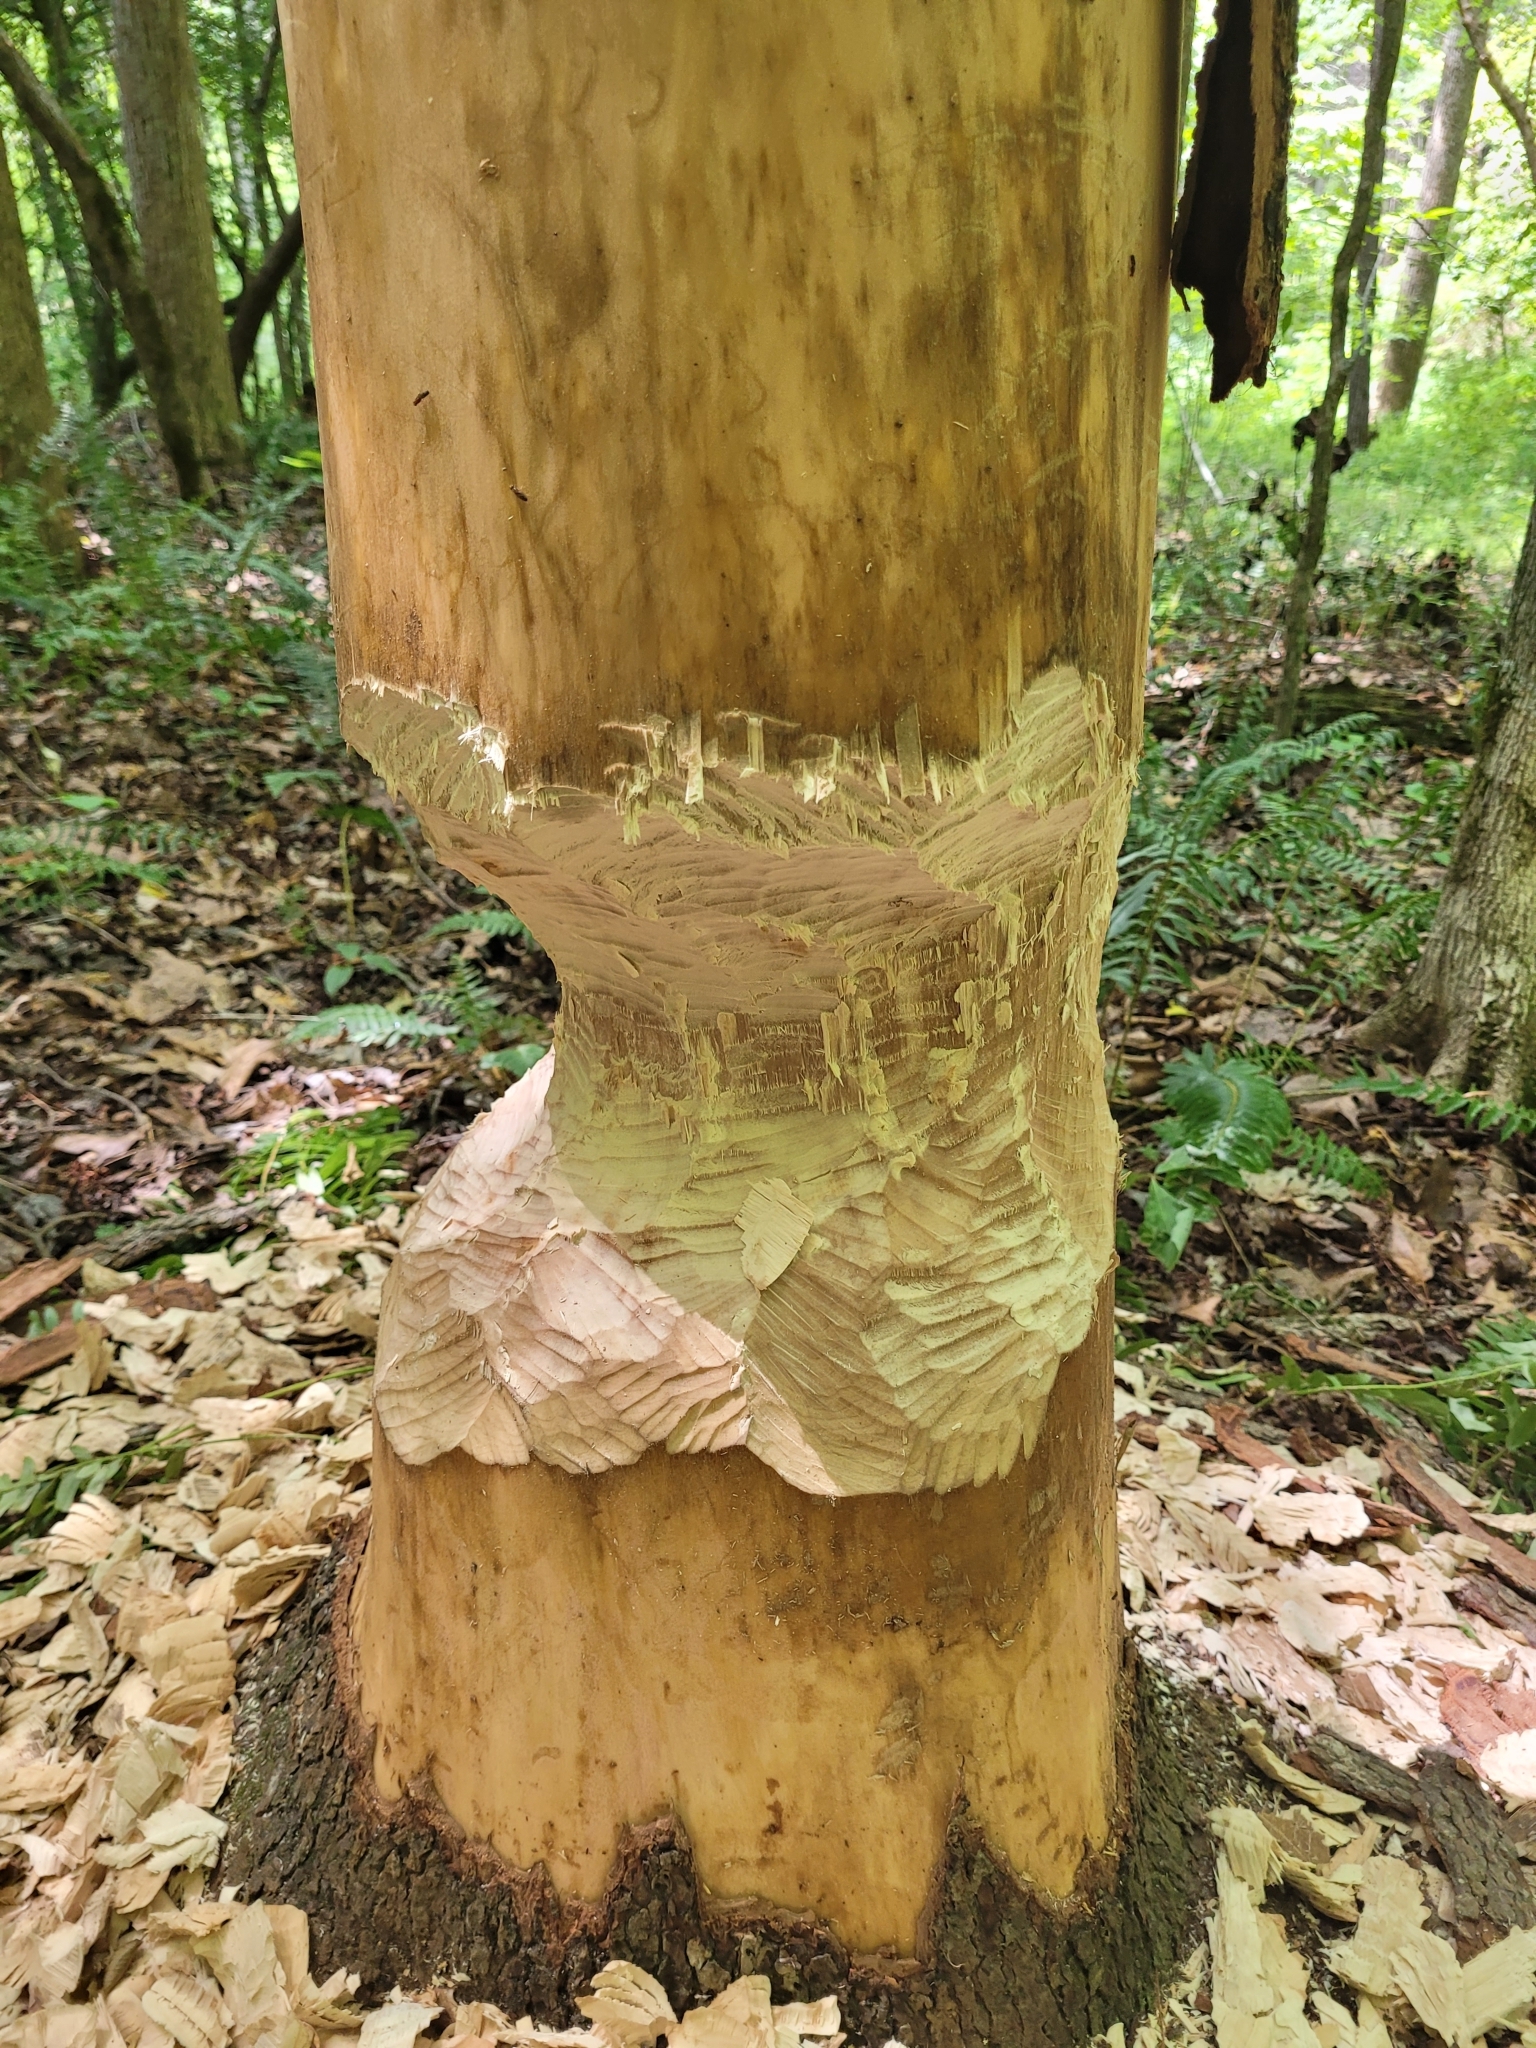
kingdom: Animalia
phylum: Chordata
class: Mammalia
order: Rodentia
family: Castoridae
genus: Castor
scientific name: Castor canadensis
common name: American beaver
